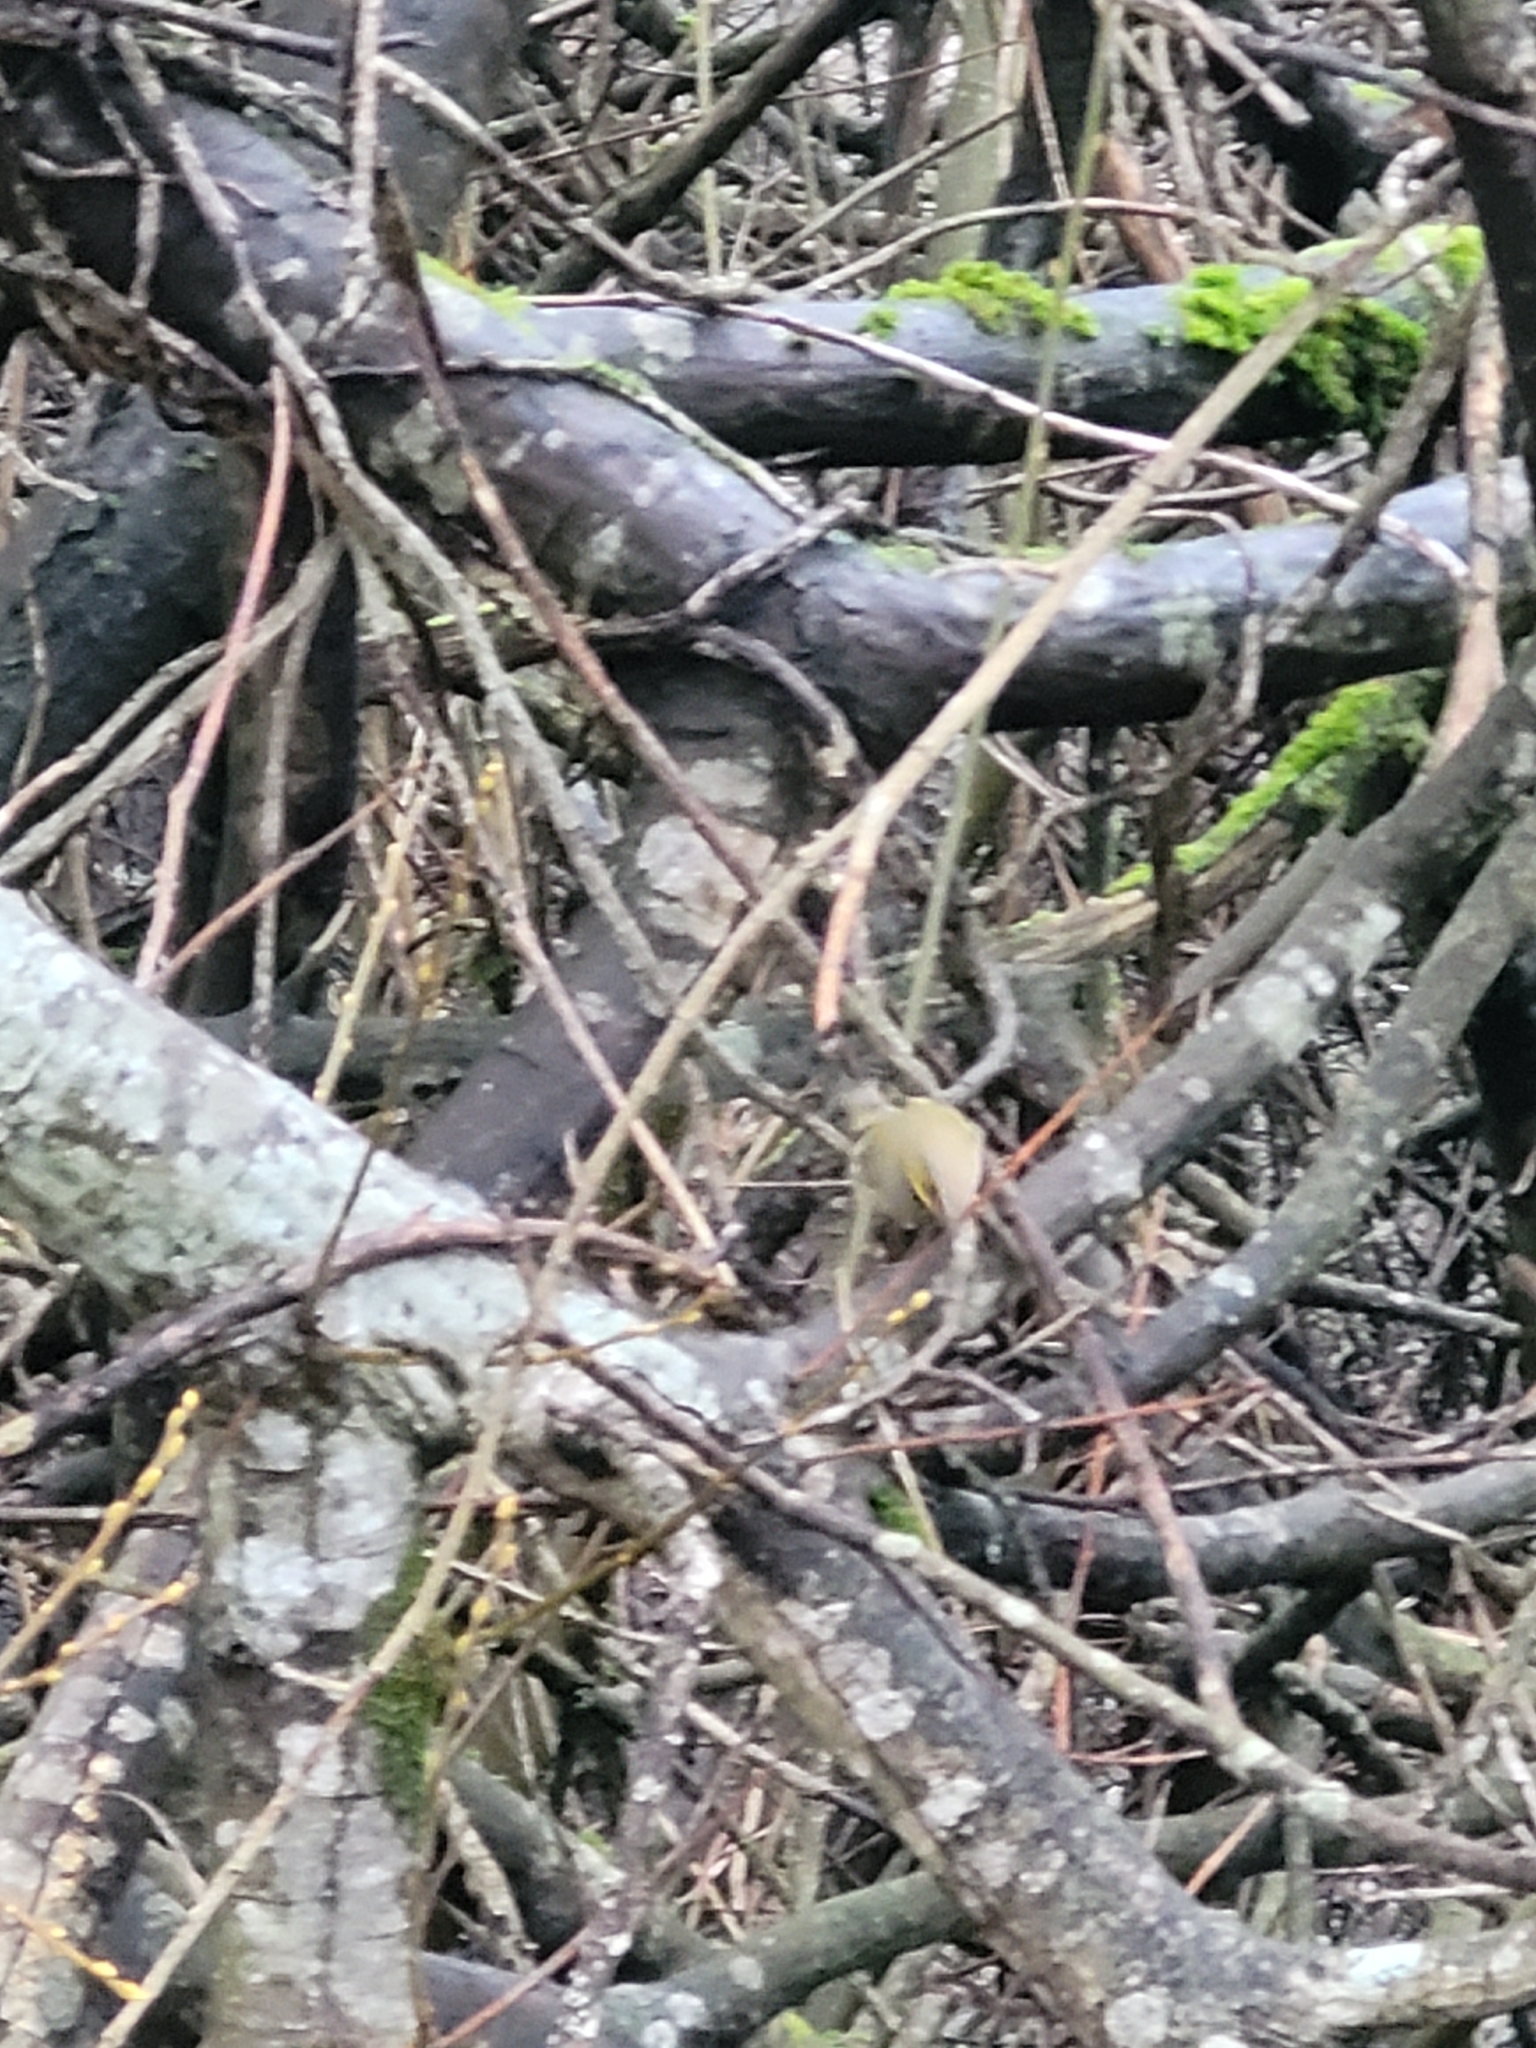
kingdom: Animalia
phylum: Chordata
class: Aves
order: Passeriformes
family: Regulidae
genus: Regulus
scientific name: Regulus regulus
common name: Goldcrest
